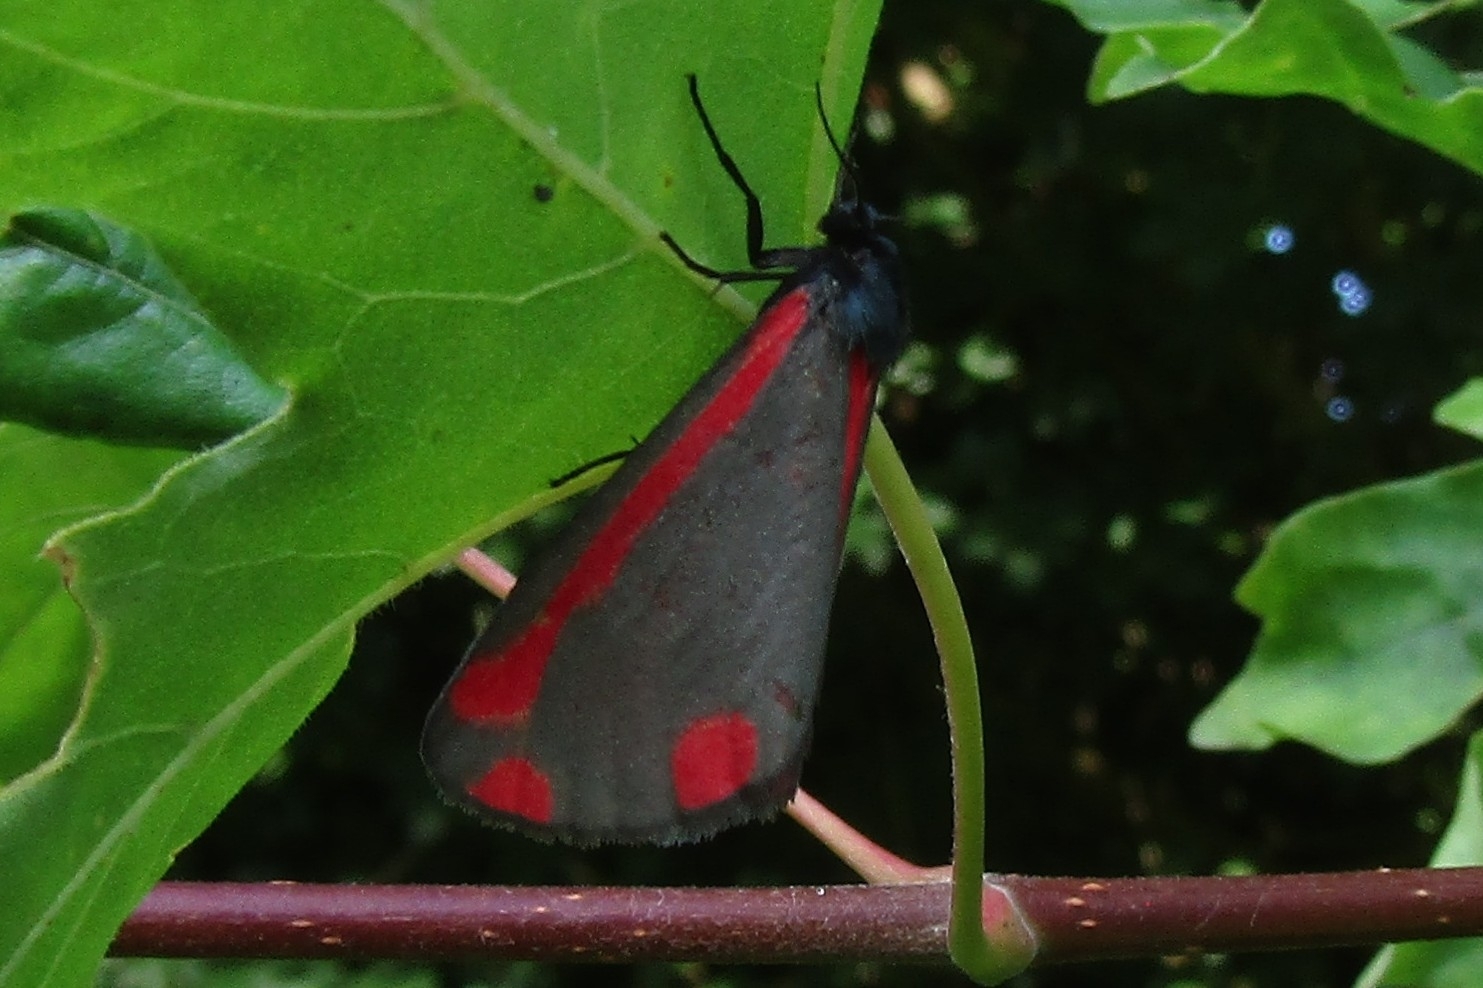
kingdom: Animalia
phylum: Arthropoda
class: Insecta
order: Lepidoptera
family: Erebidae
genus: Tyria
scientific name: Tyria jacobaeae
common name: Cinnabar
